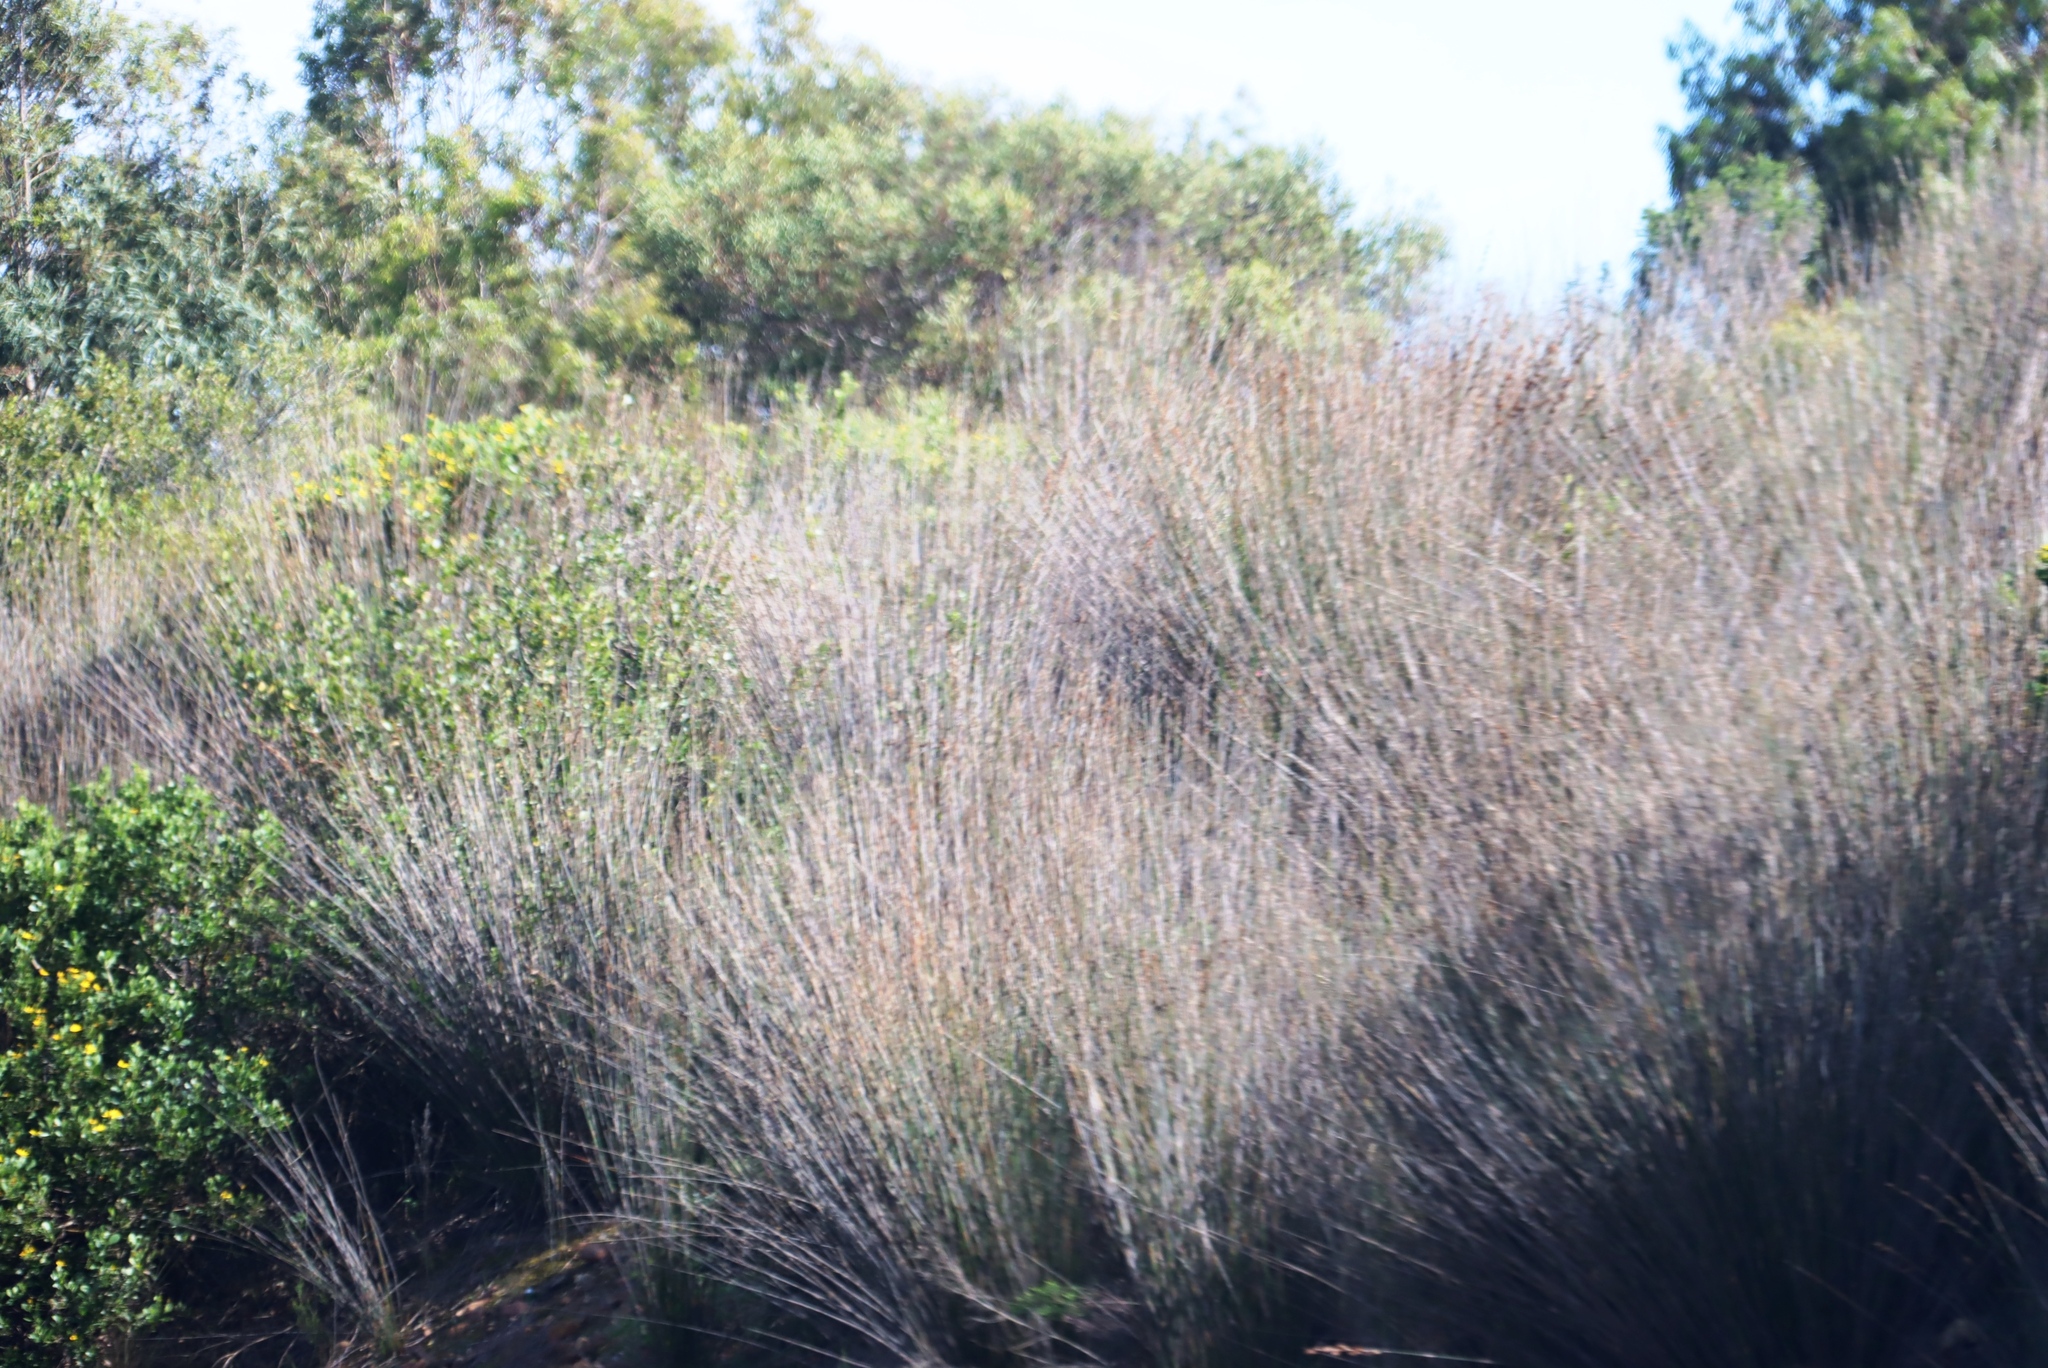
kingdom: Plantae
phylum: Tracheophyta
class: Liliopsida
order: Poales
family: Restionaceae
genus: Thamnochortus
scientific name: Thamnochortus insignis
